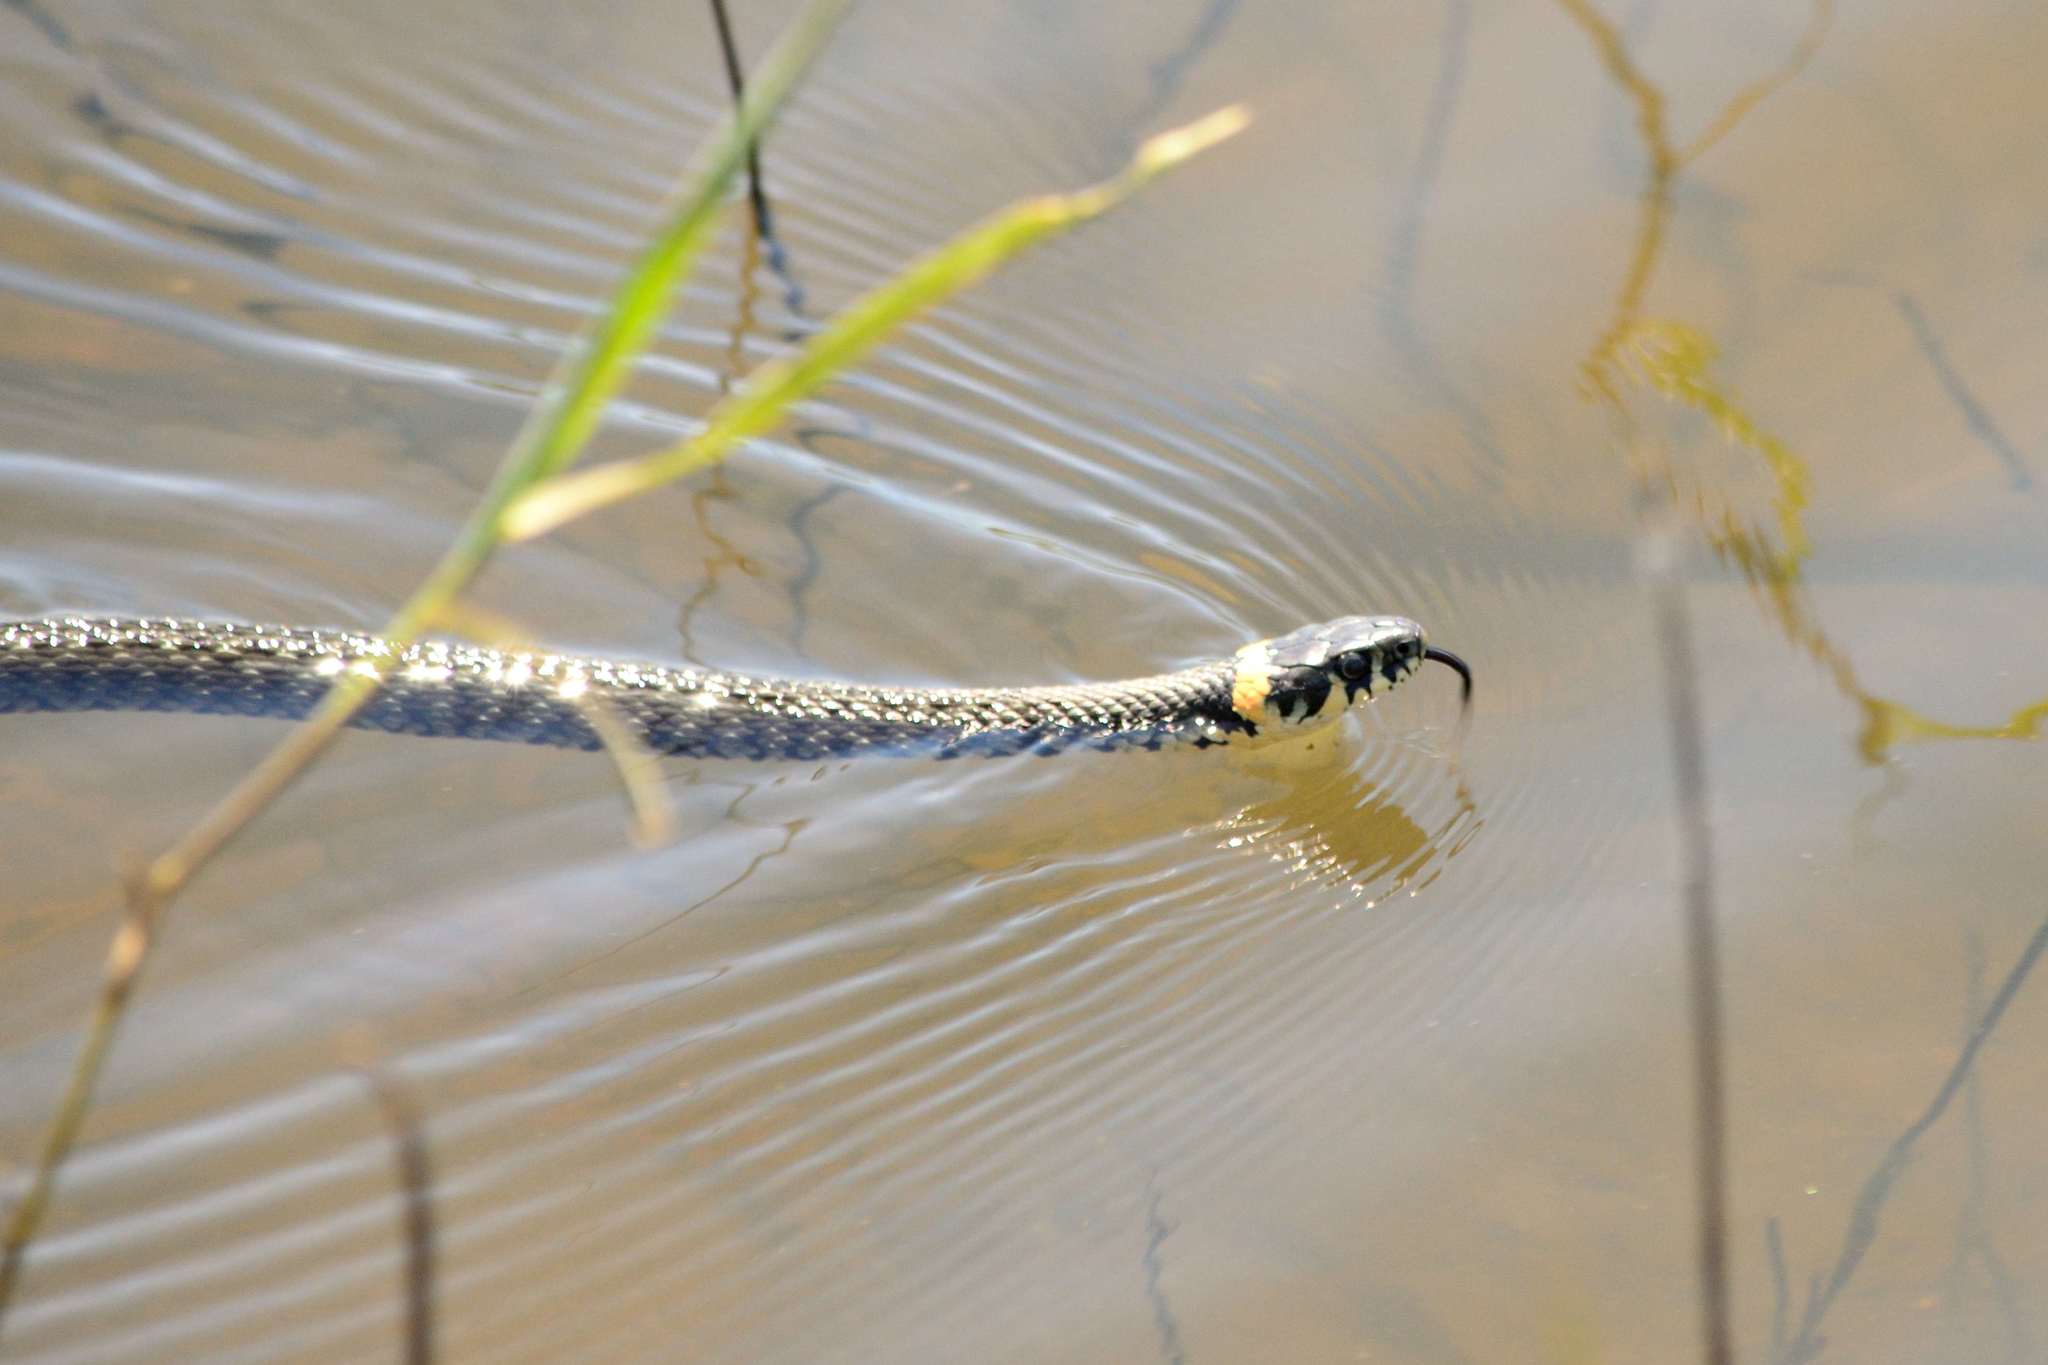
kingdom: Animalia
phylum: Chordata
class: Squamata
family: Colubridae
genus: Natrix
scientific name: Natrix natrix
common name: Grass snake
